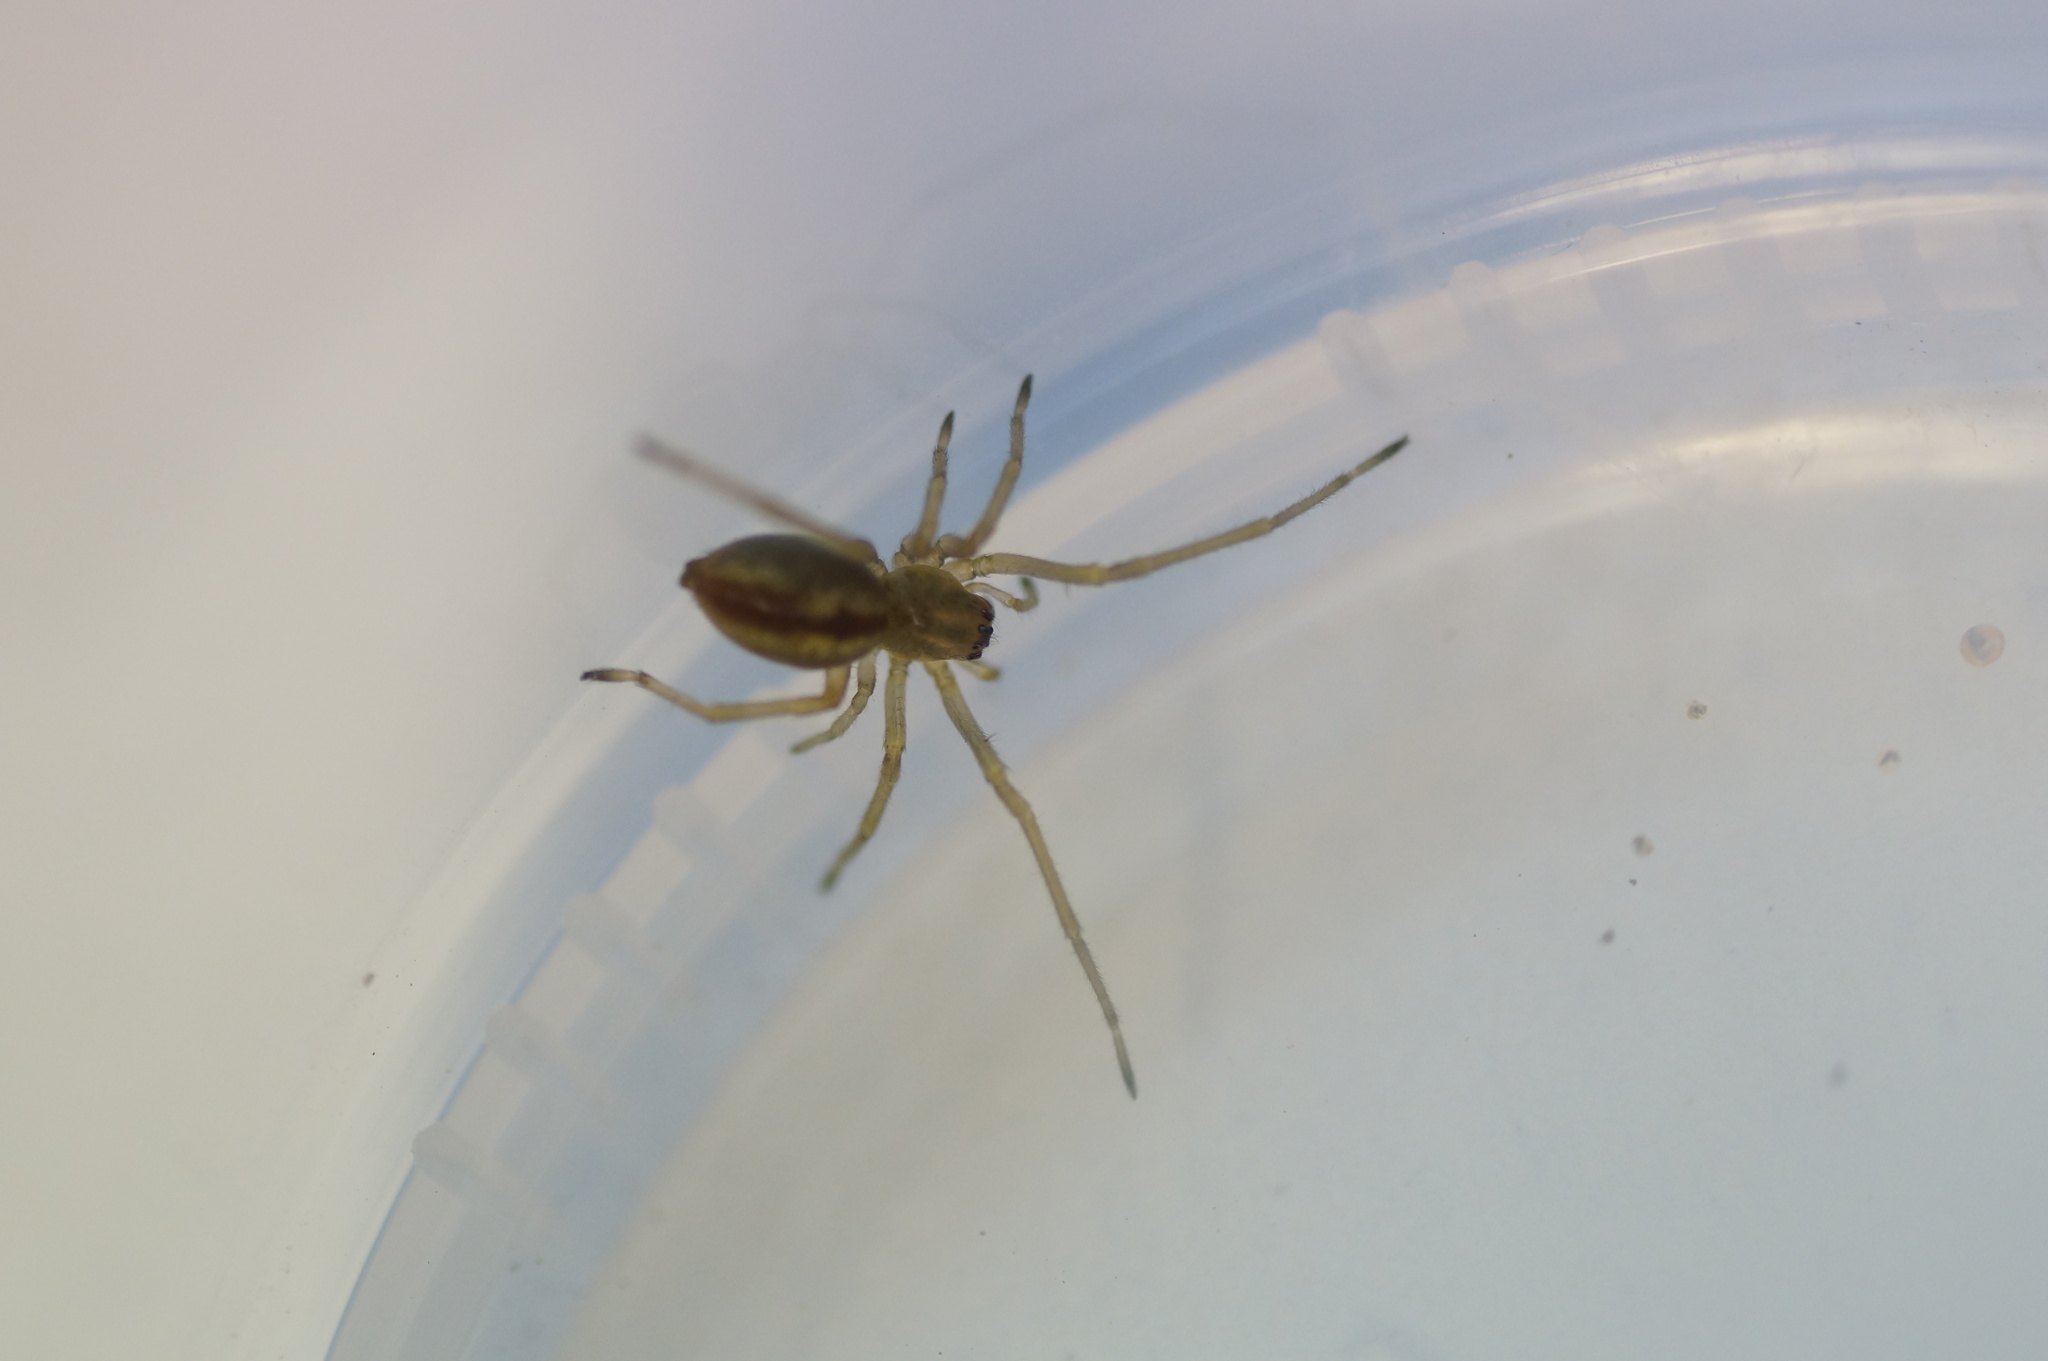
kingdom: Animalia
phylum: Arthropoda
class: Arachnida
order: Araneae
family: Cheiracanthiidae
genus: Cheiracanthium
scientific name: Cheiracanthium erraticum
